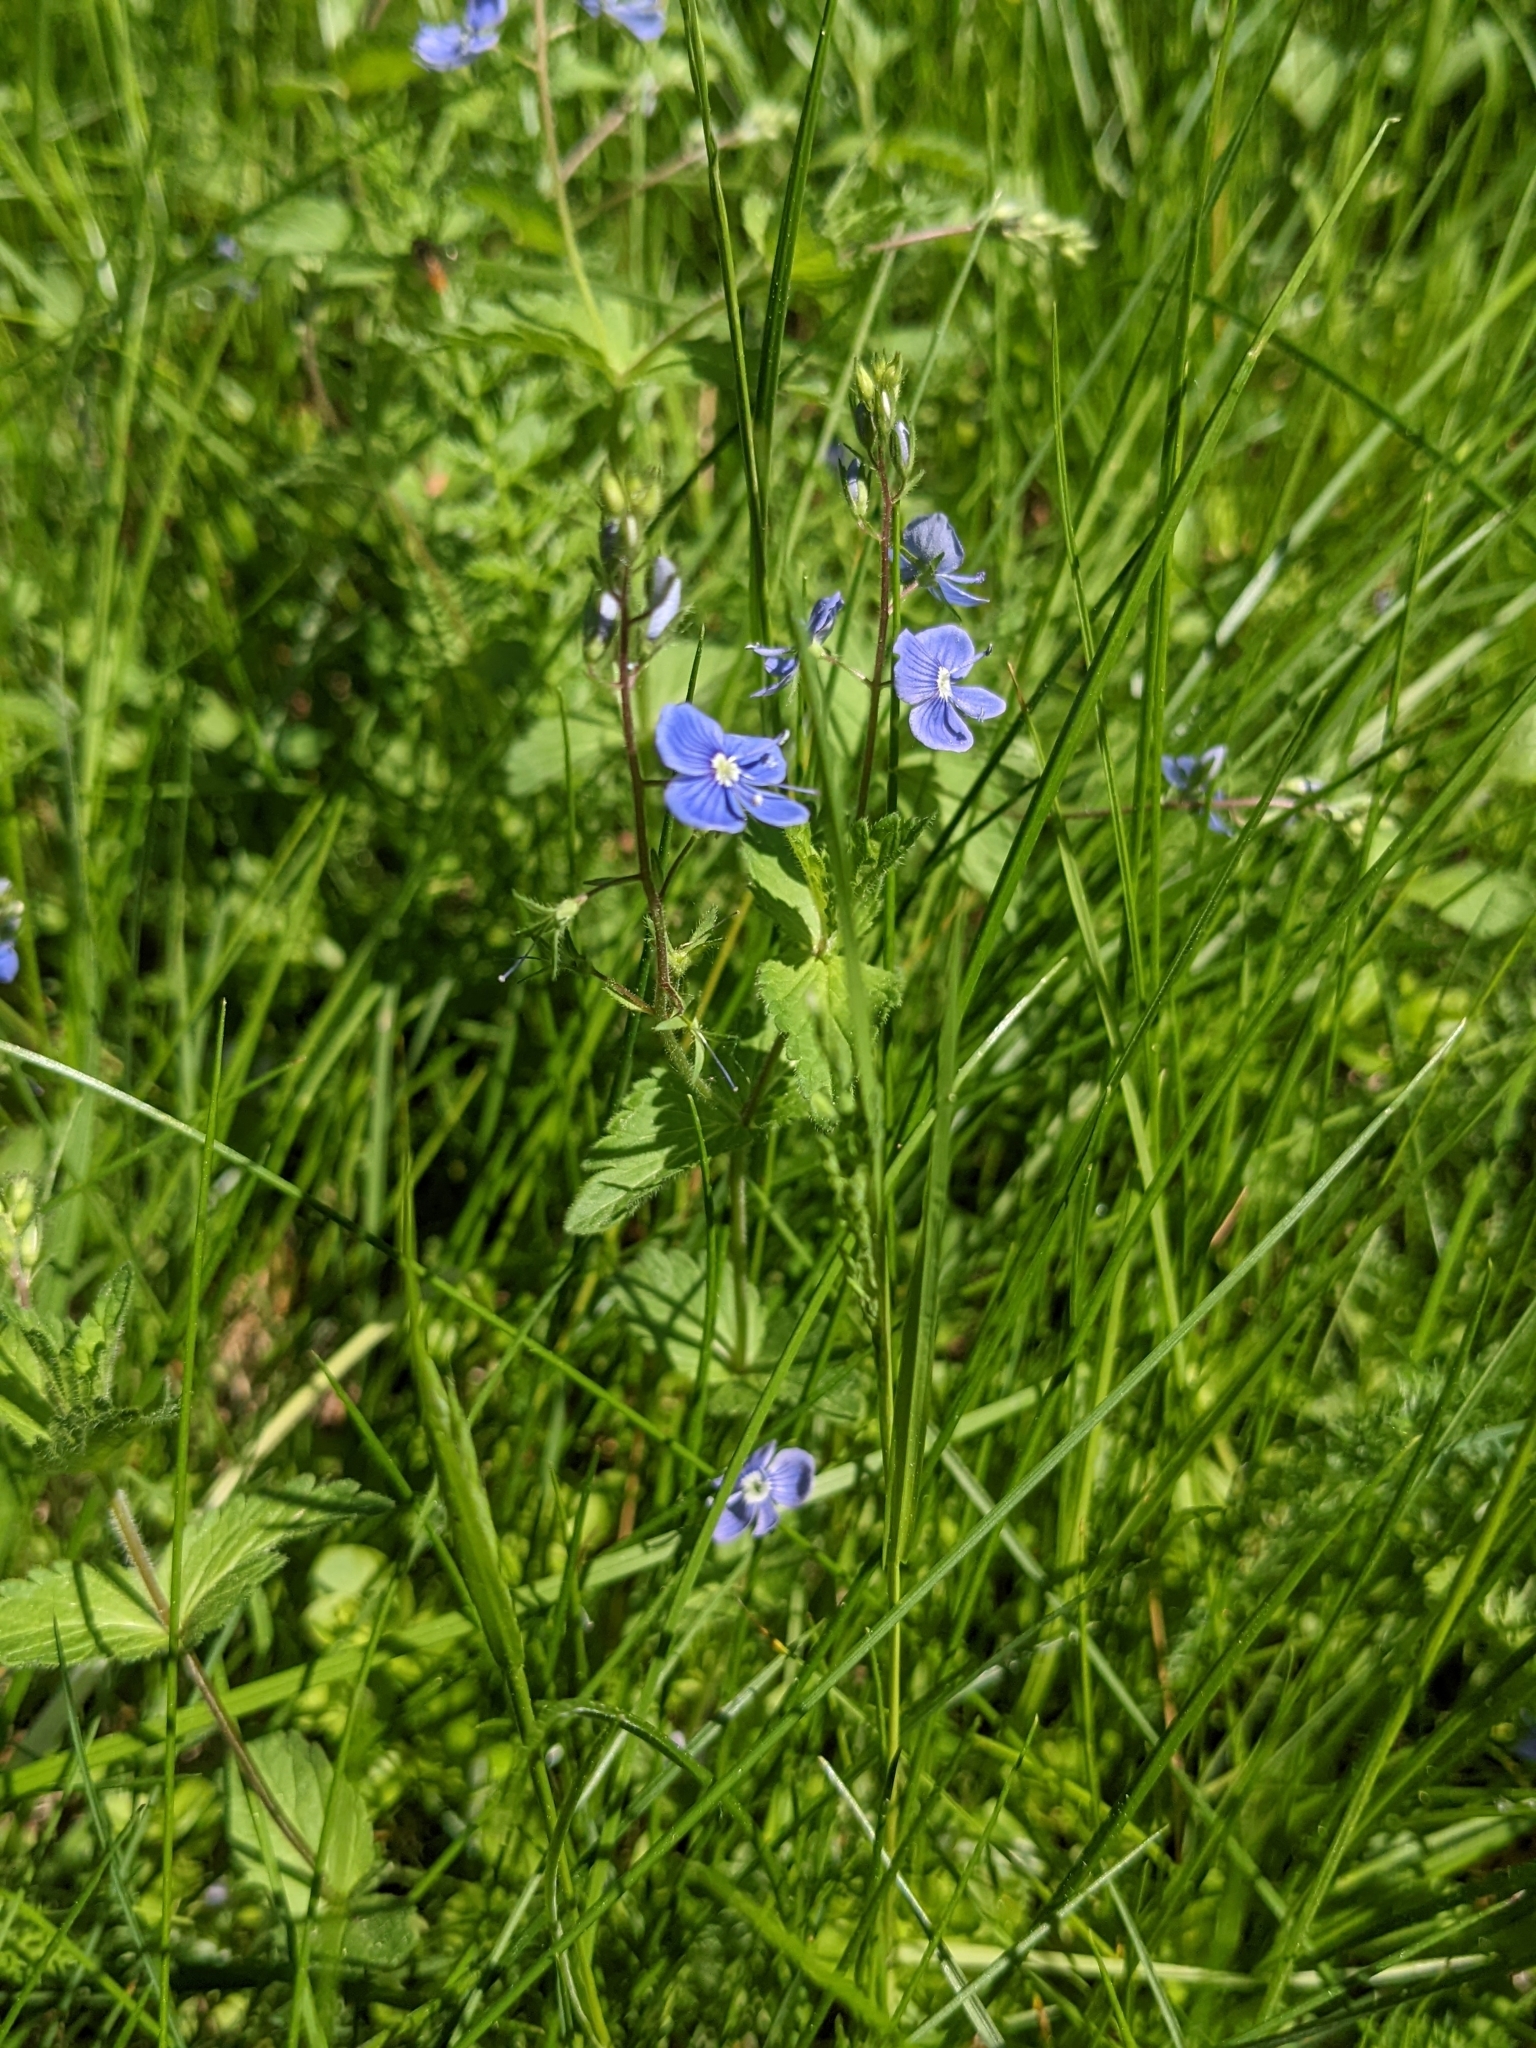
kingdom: Plantae
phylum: Tracheophyta
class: Magnoliopsida
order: Lamiales
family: Plantaginaceae
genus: Veronica
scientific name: Veronica chamaedrys
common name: Germander speedwell
